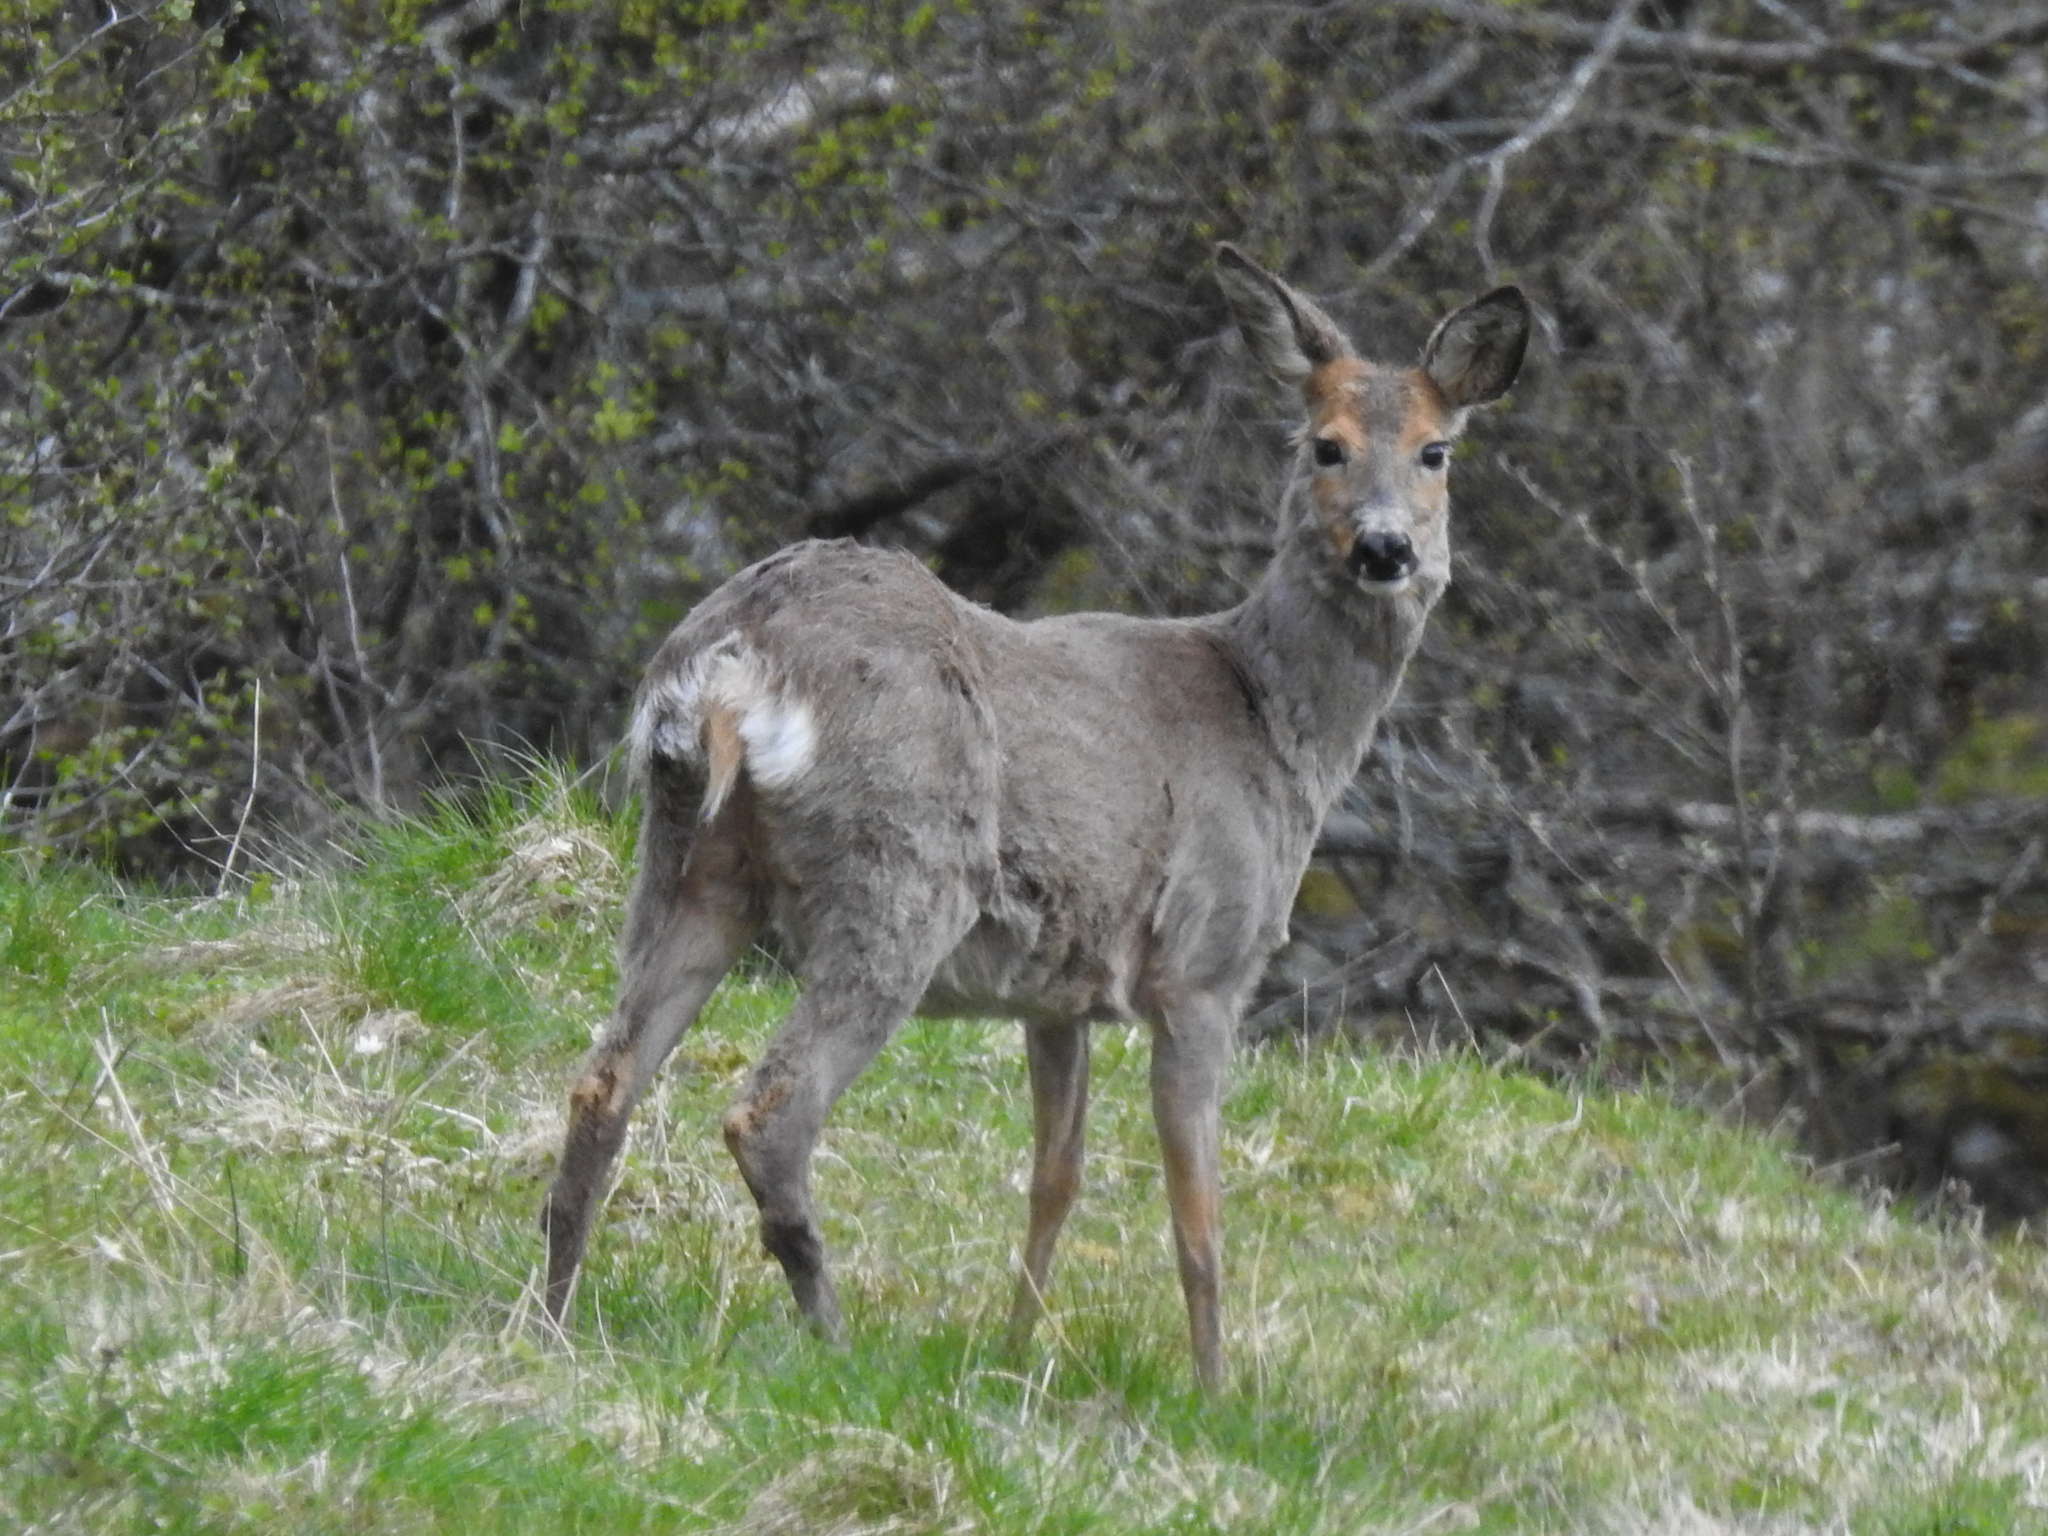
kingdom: Animalia
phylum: Chordata
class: Mammalia
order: Artiodactyla
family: Cervidae
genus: Capreolus
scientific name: Capreolus capreolus
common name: Western roe deer
